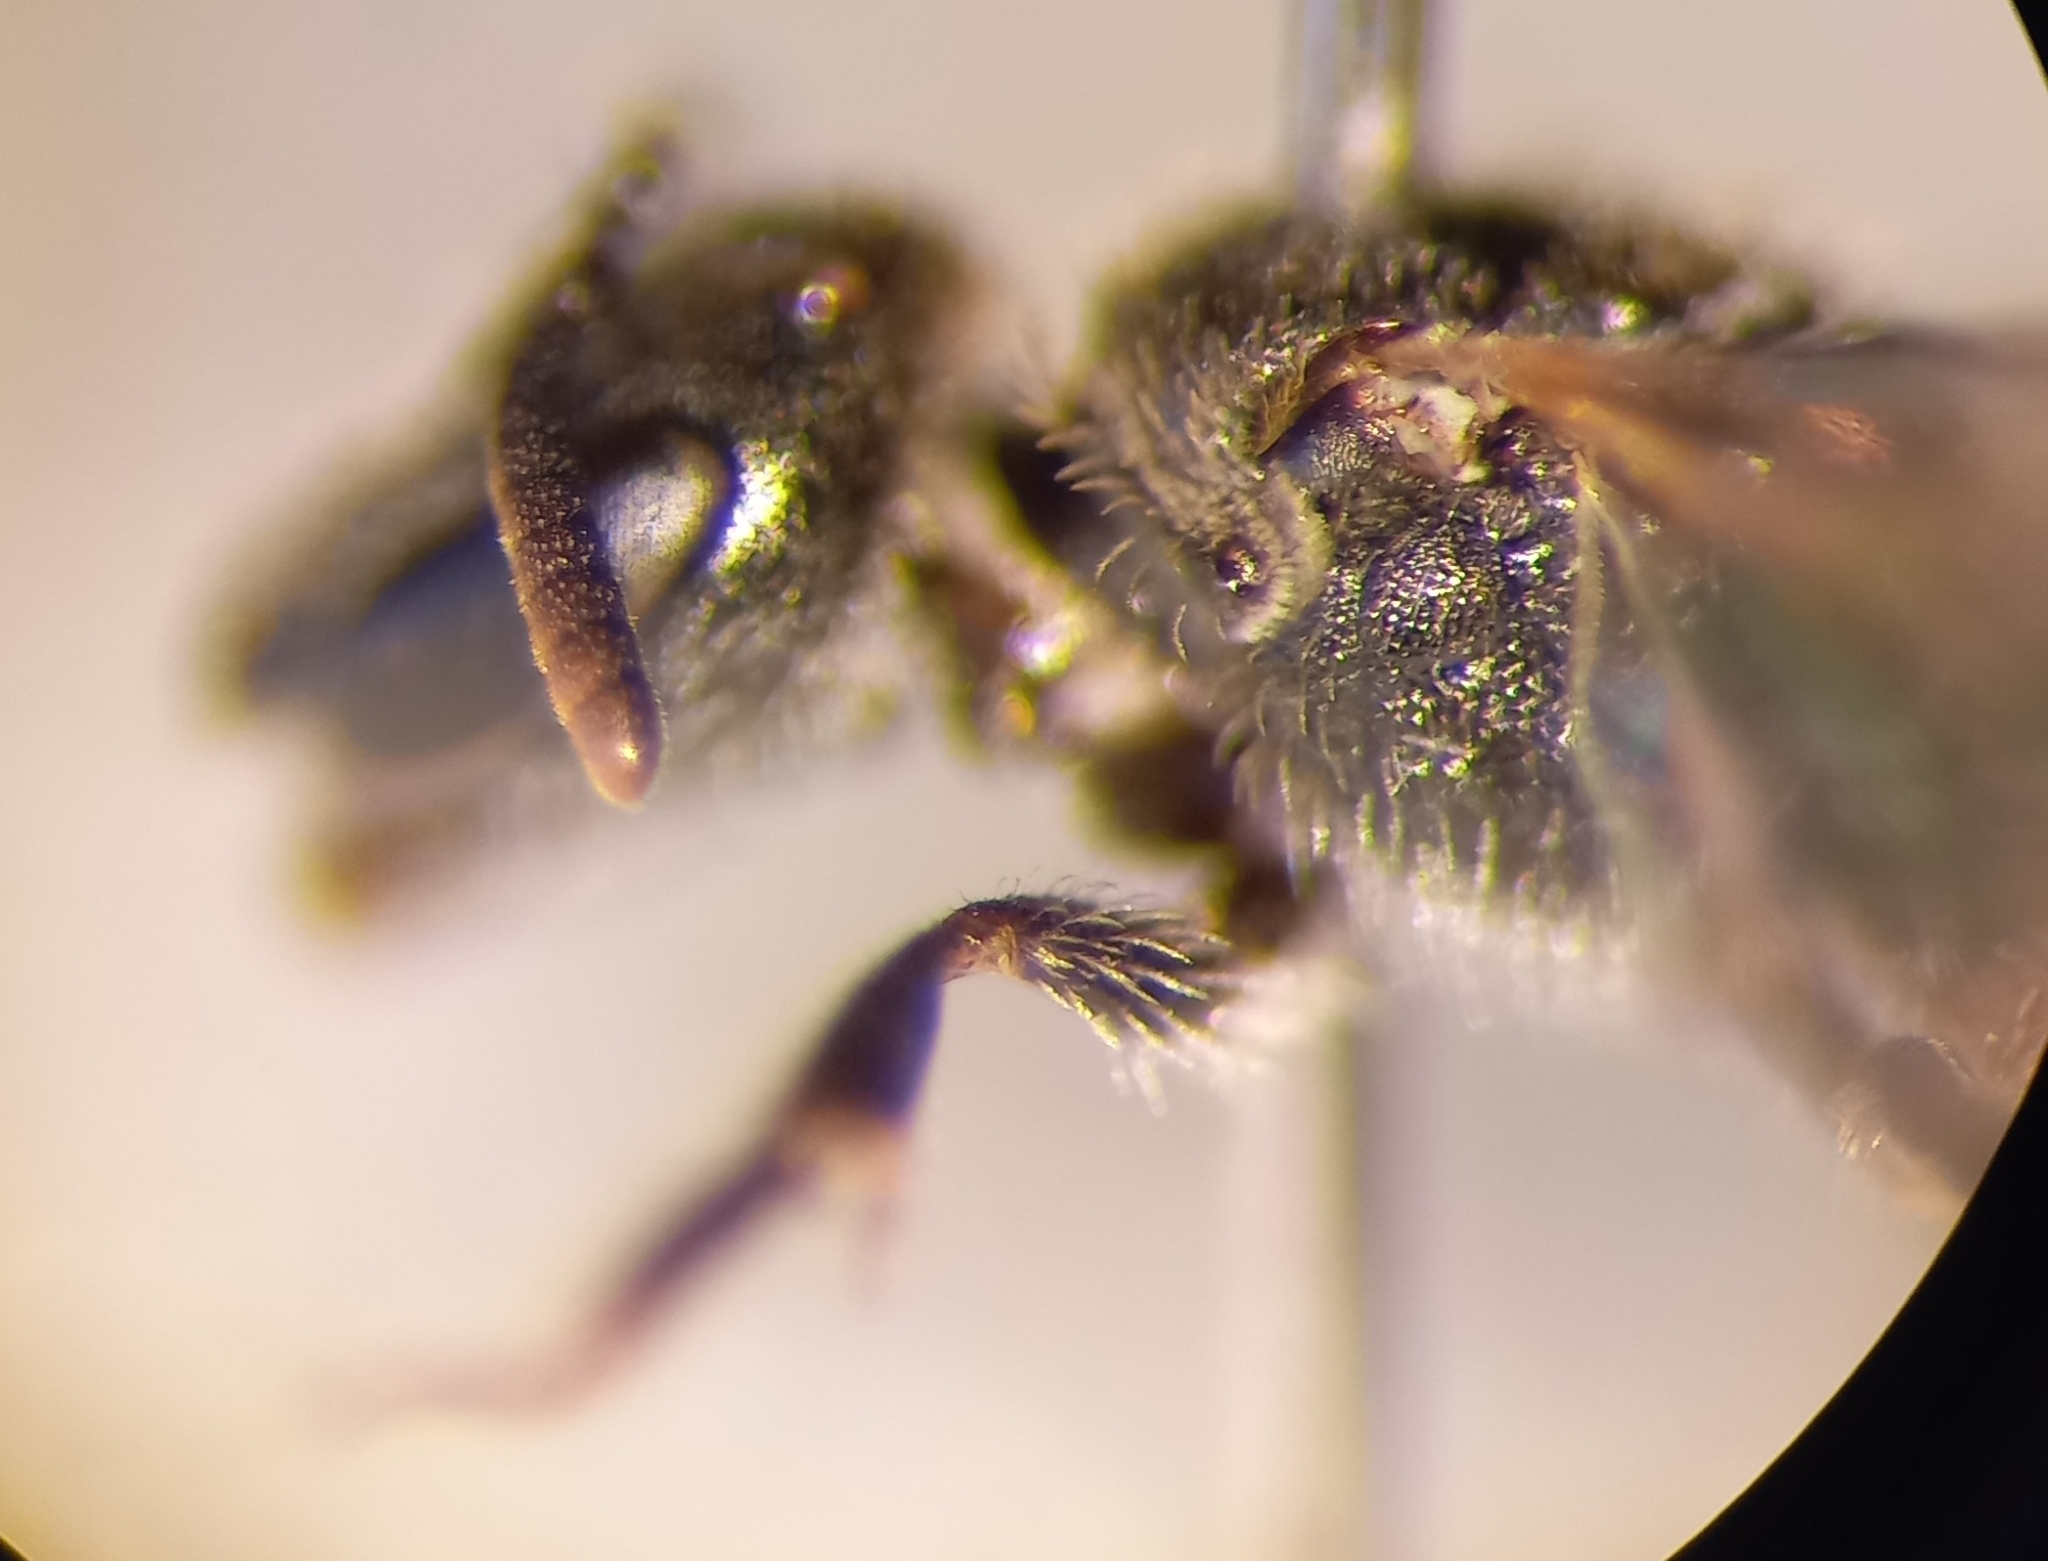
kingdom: Animalia
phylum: Arthropoda
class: Insecta
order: Hymenoptera
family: Halictidae
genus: Lasioglossum
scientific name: Lasioglossum griseolum
